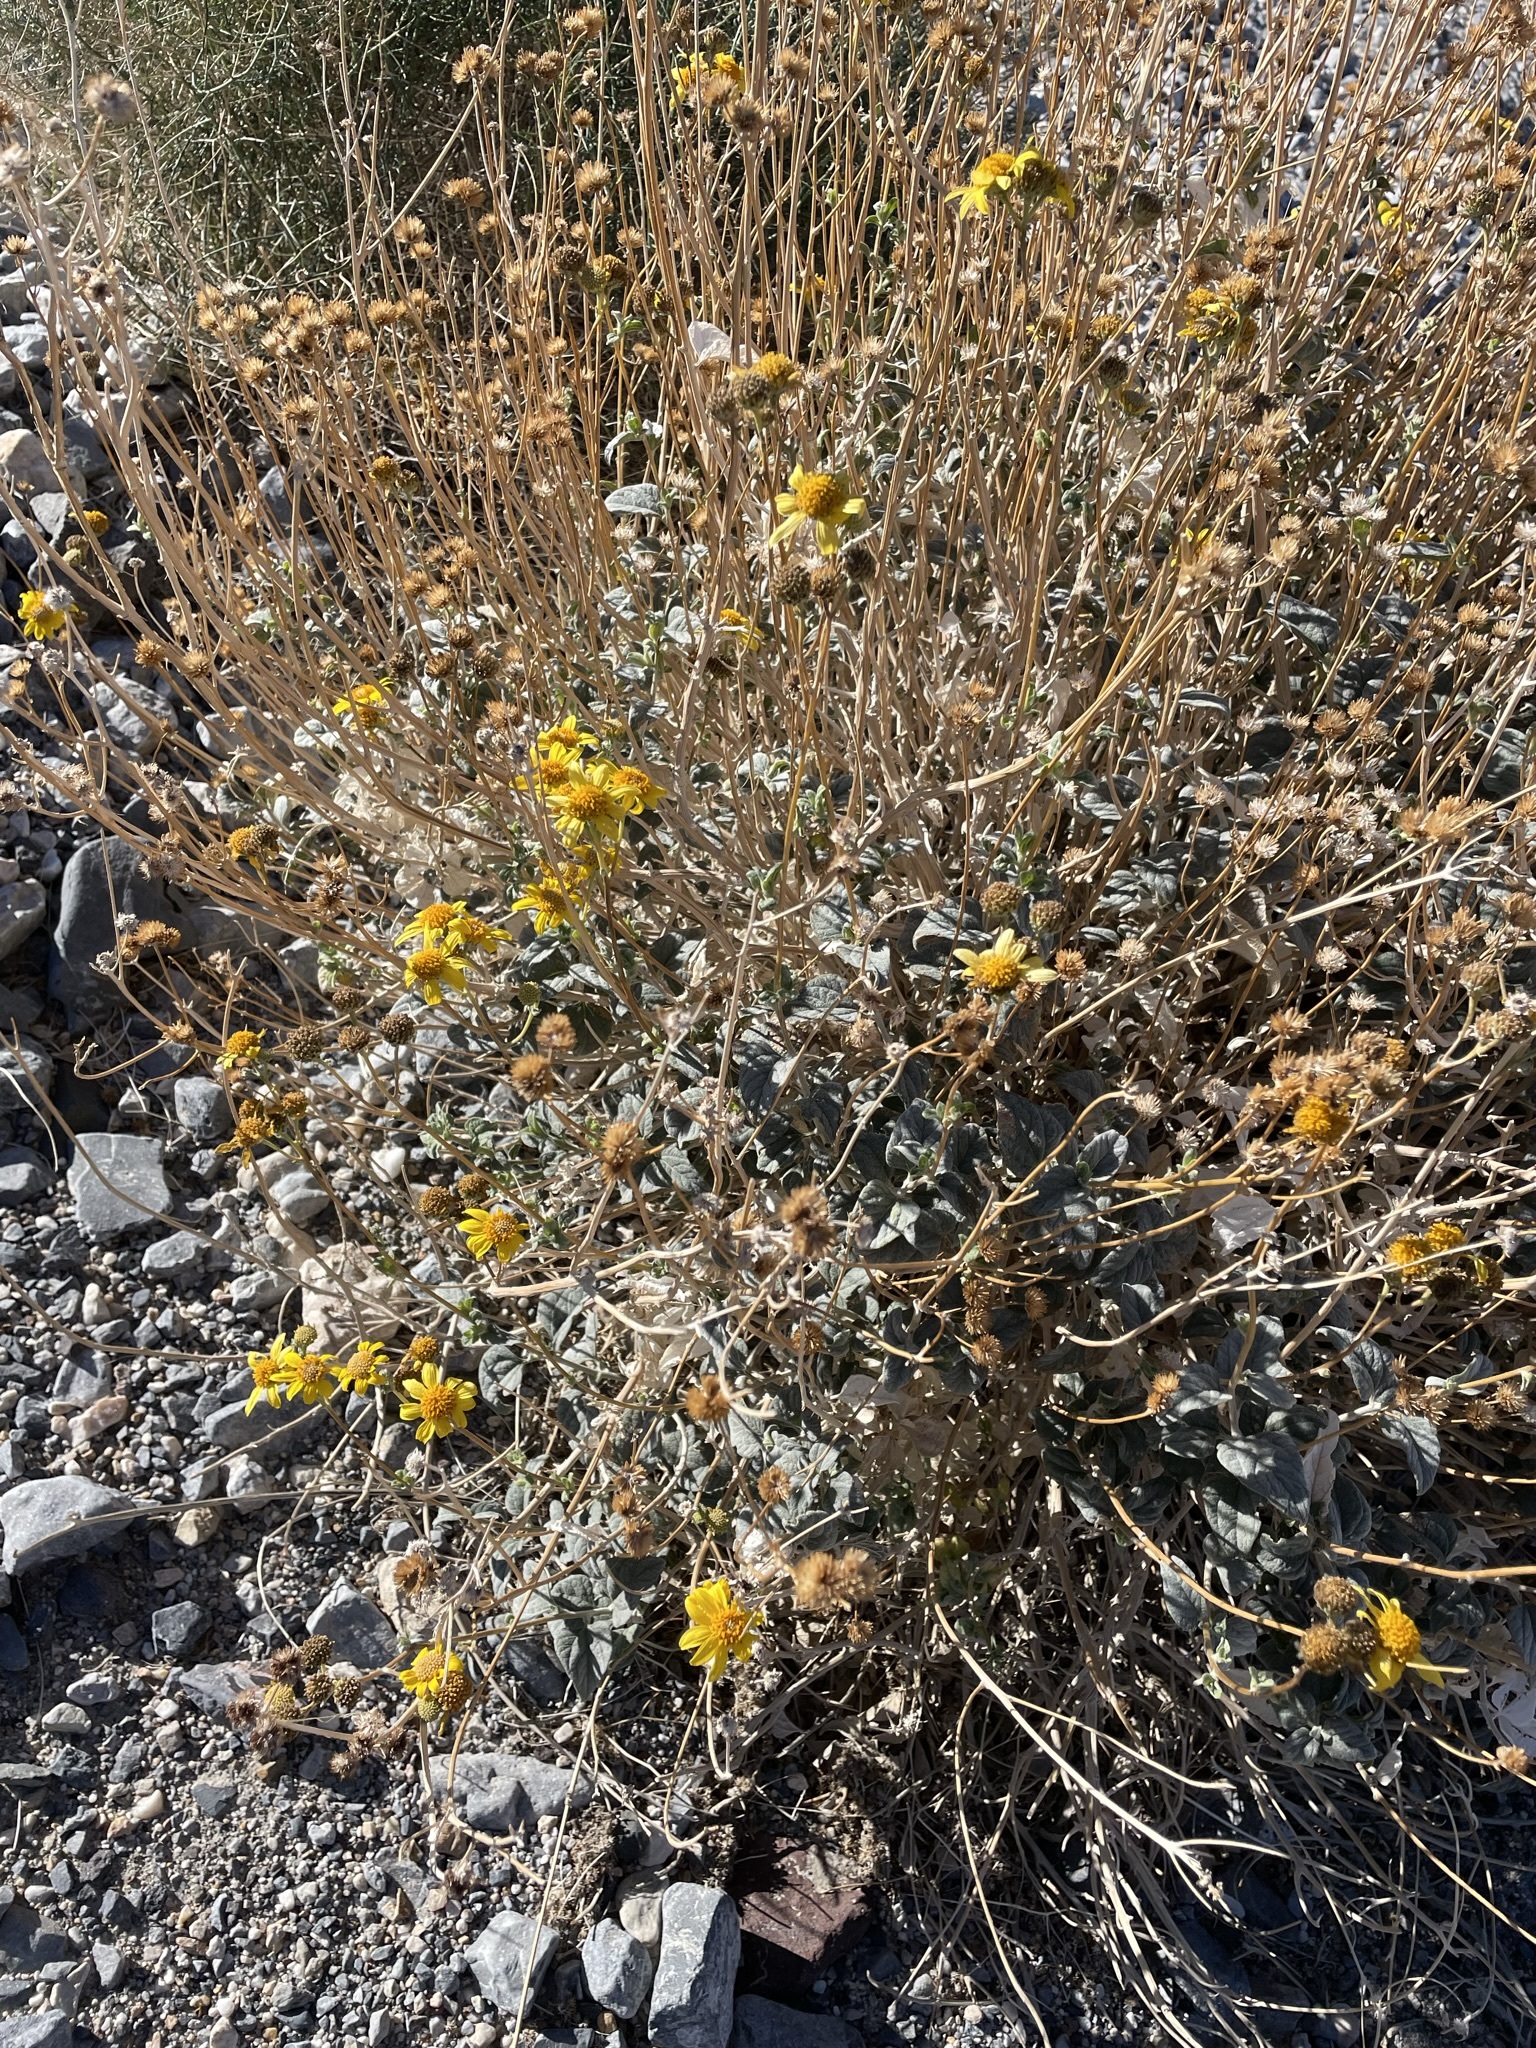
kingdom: Plantae
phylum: Tracheophyta
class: Magnoliopsida
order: Asterales
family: Asteraceae
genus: Bahiopsis
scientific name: Bahiopsis reticulata
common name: Death valley goldeneye
